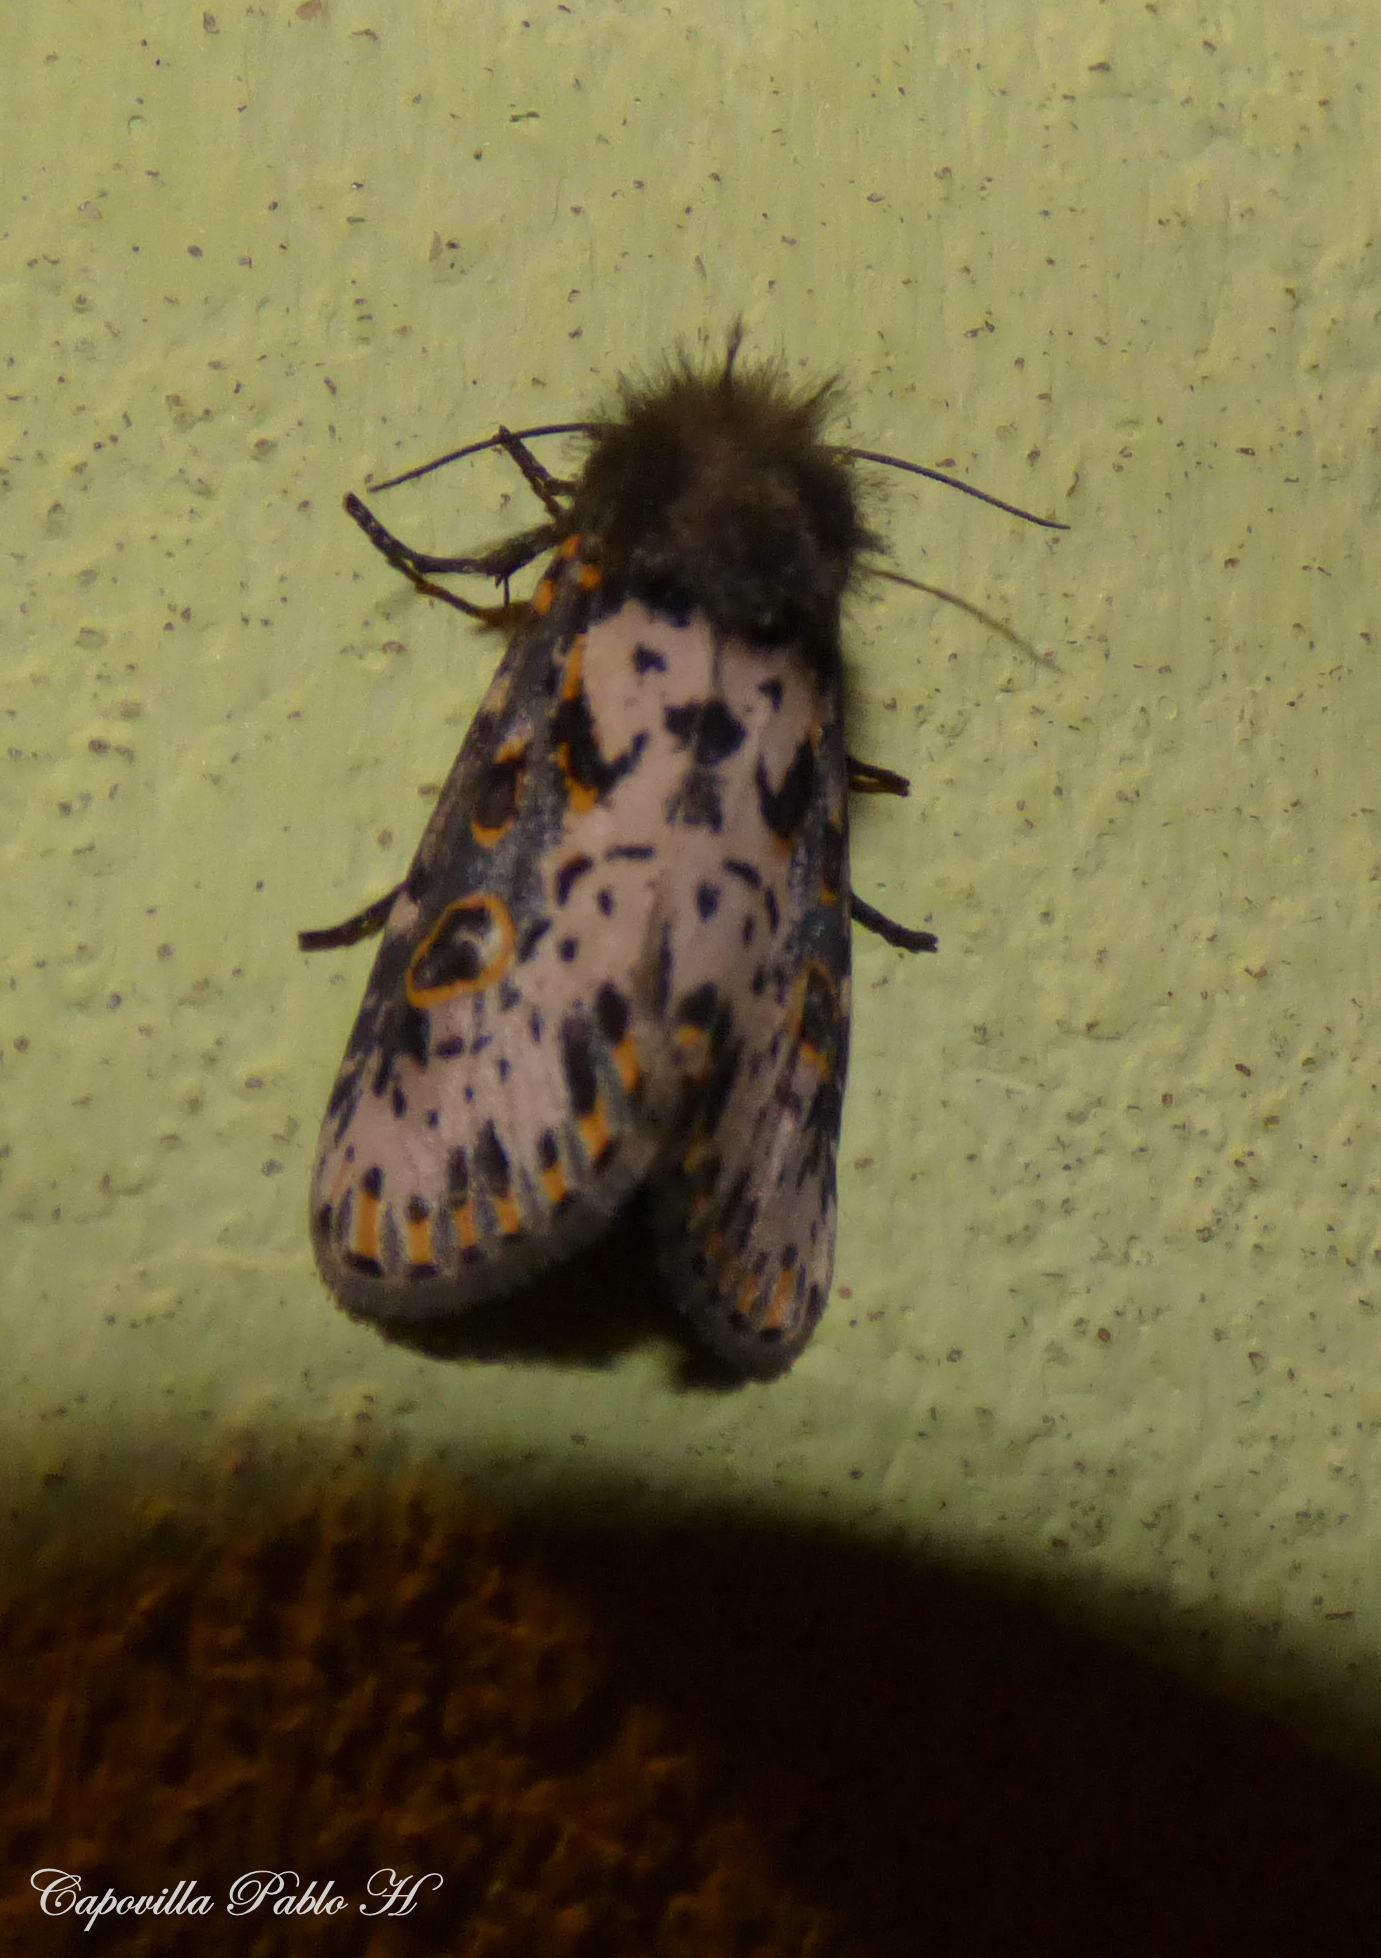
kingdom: Animalia
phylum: Arthropoda
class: Insecta
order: Lepidoptera
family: Noctuidae
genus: Xanthopastis
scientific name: Xanthopastis timais
